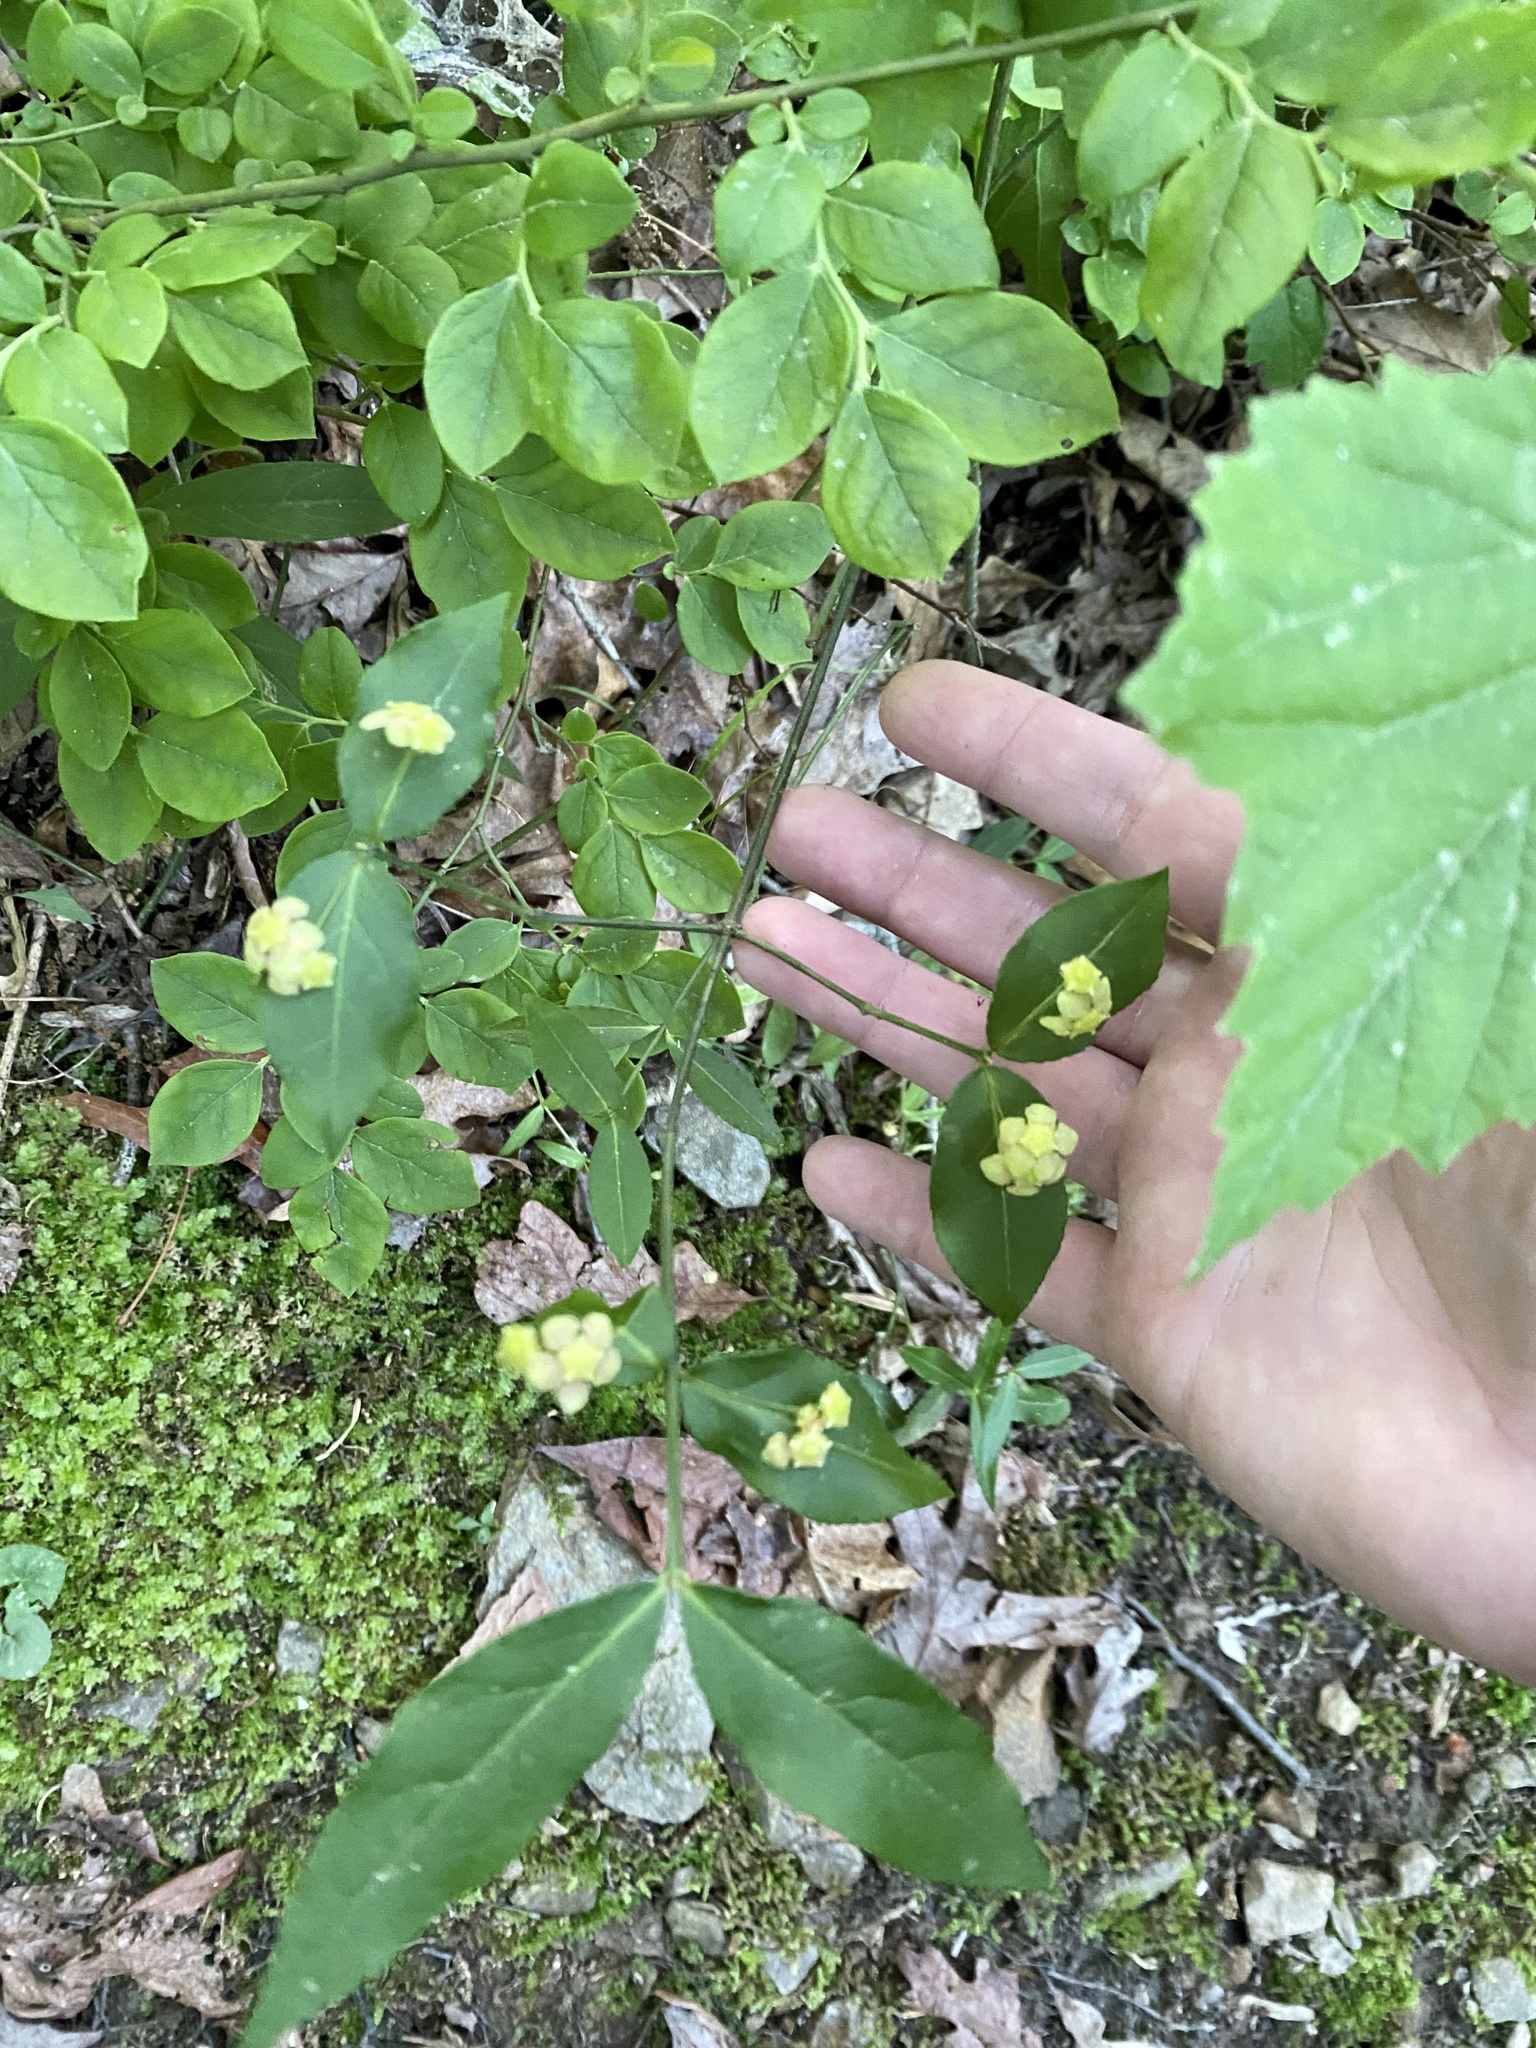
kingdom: Plantae
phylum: Tracheophyta
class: Magnoliopsida
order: Celastrales
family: Celastraceae
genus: Euonymus
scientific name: Euonymus americanus
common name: Bursting-heart
